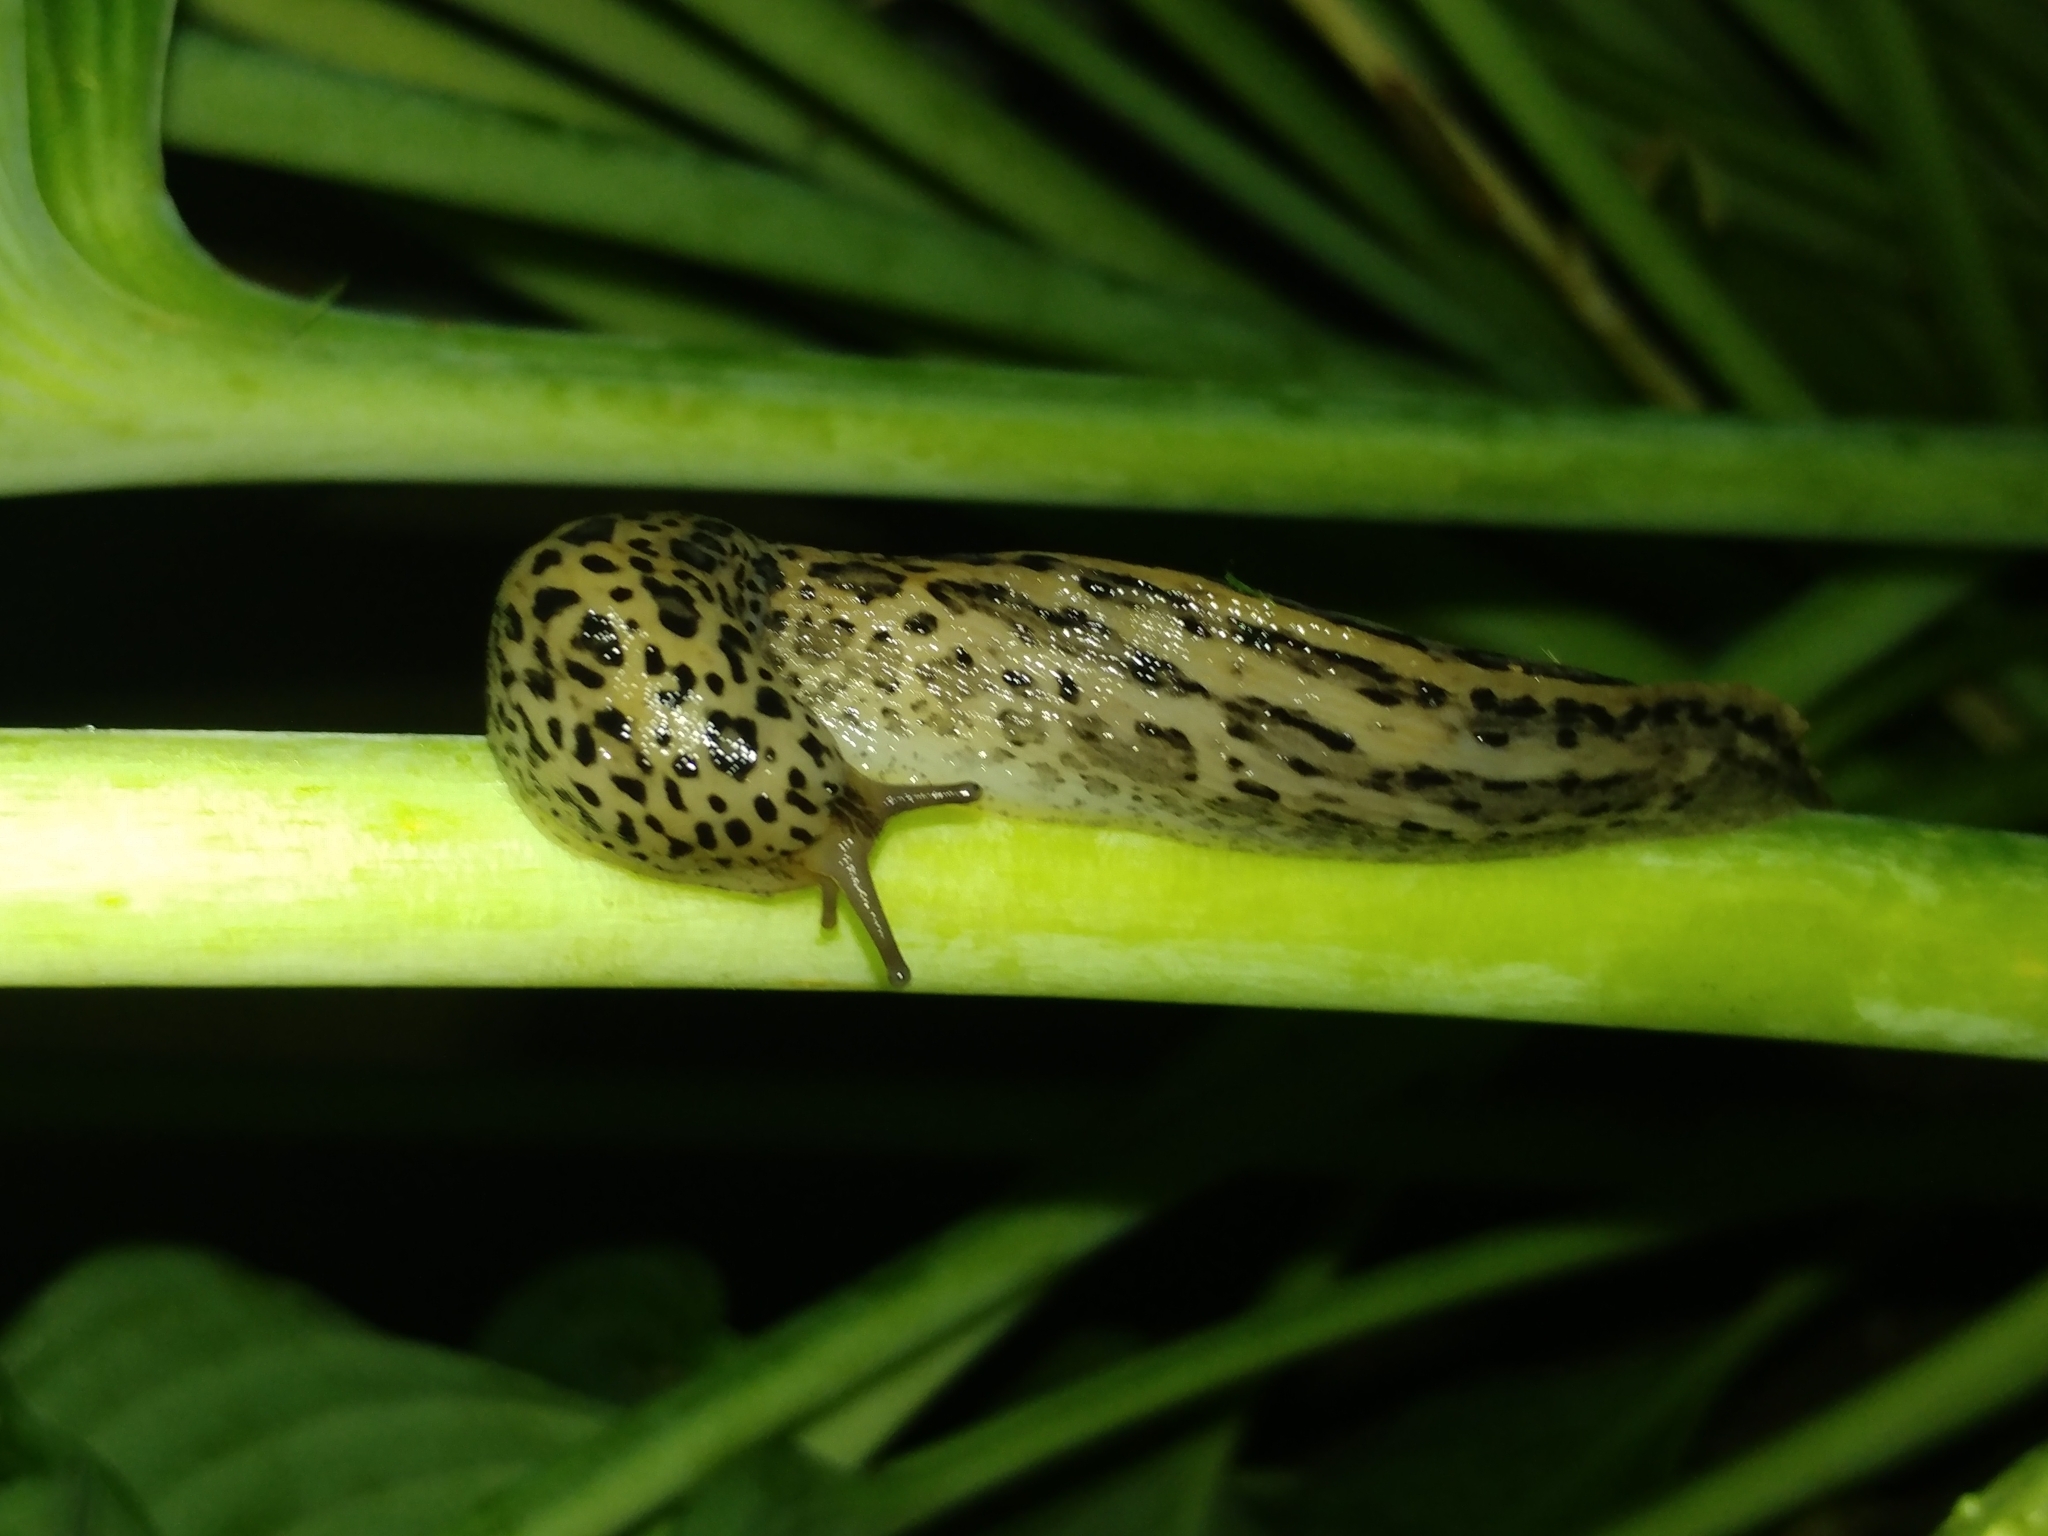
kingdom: Animalia
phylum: Mollusca
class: Gastropoda
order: Stylommatophora
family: Limacidae
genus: Limax
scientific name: Limax maximus
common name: Great grey slug
